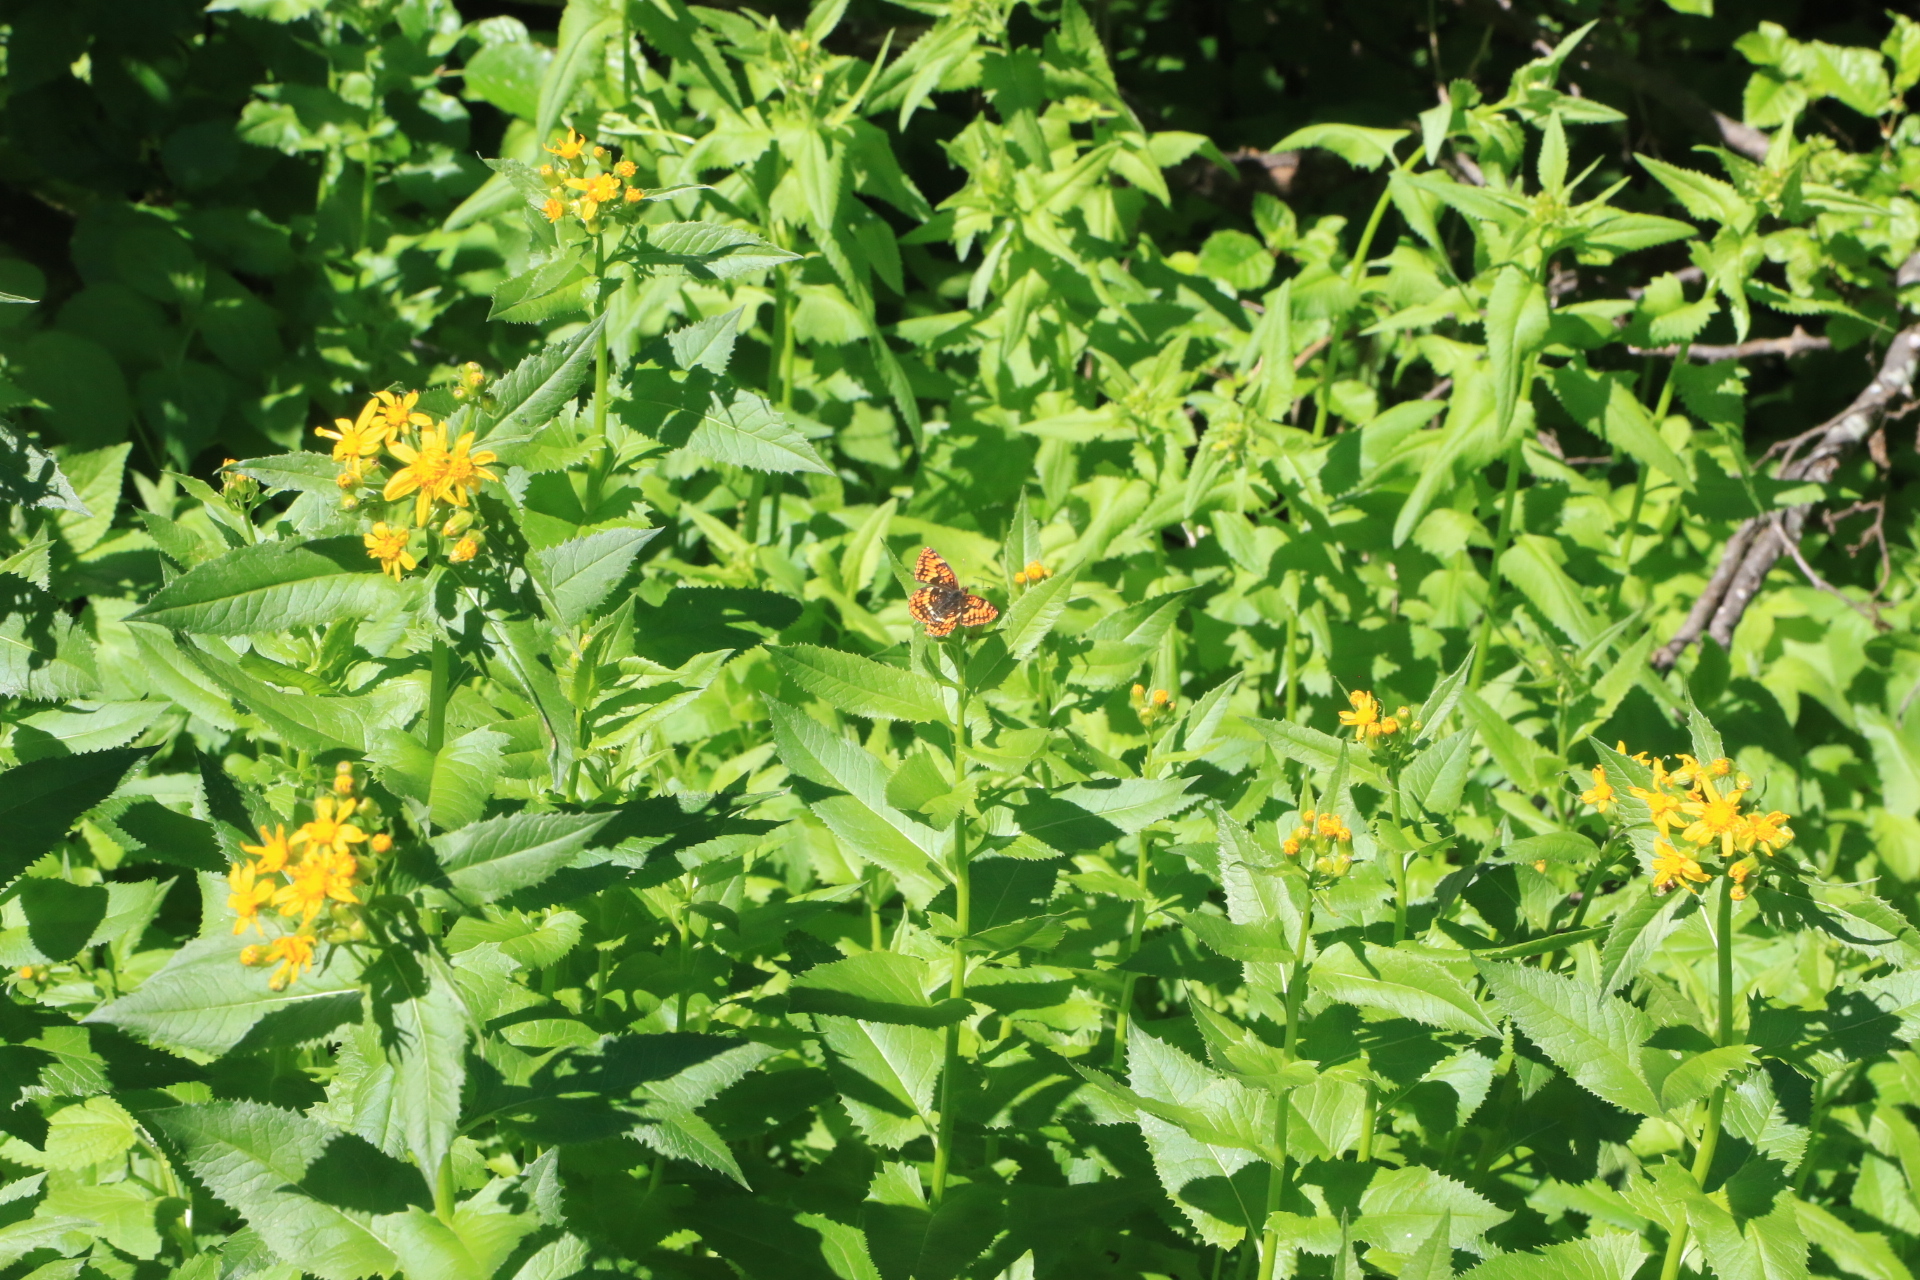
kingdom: Animalia
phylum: Arthropoda
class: Insecta
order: Lepidoptera
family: Nymphalidae
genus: Chlosyne
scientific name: Chlosyne hoffmanni
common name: Hoffmann's checkerspot
